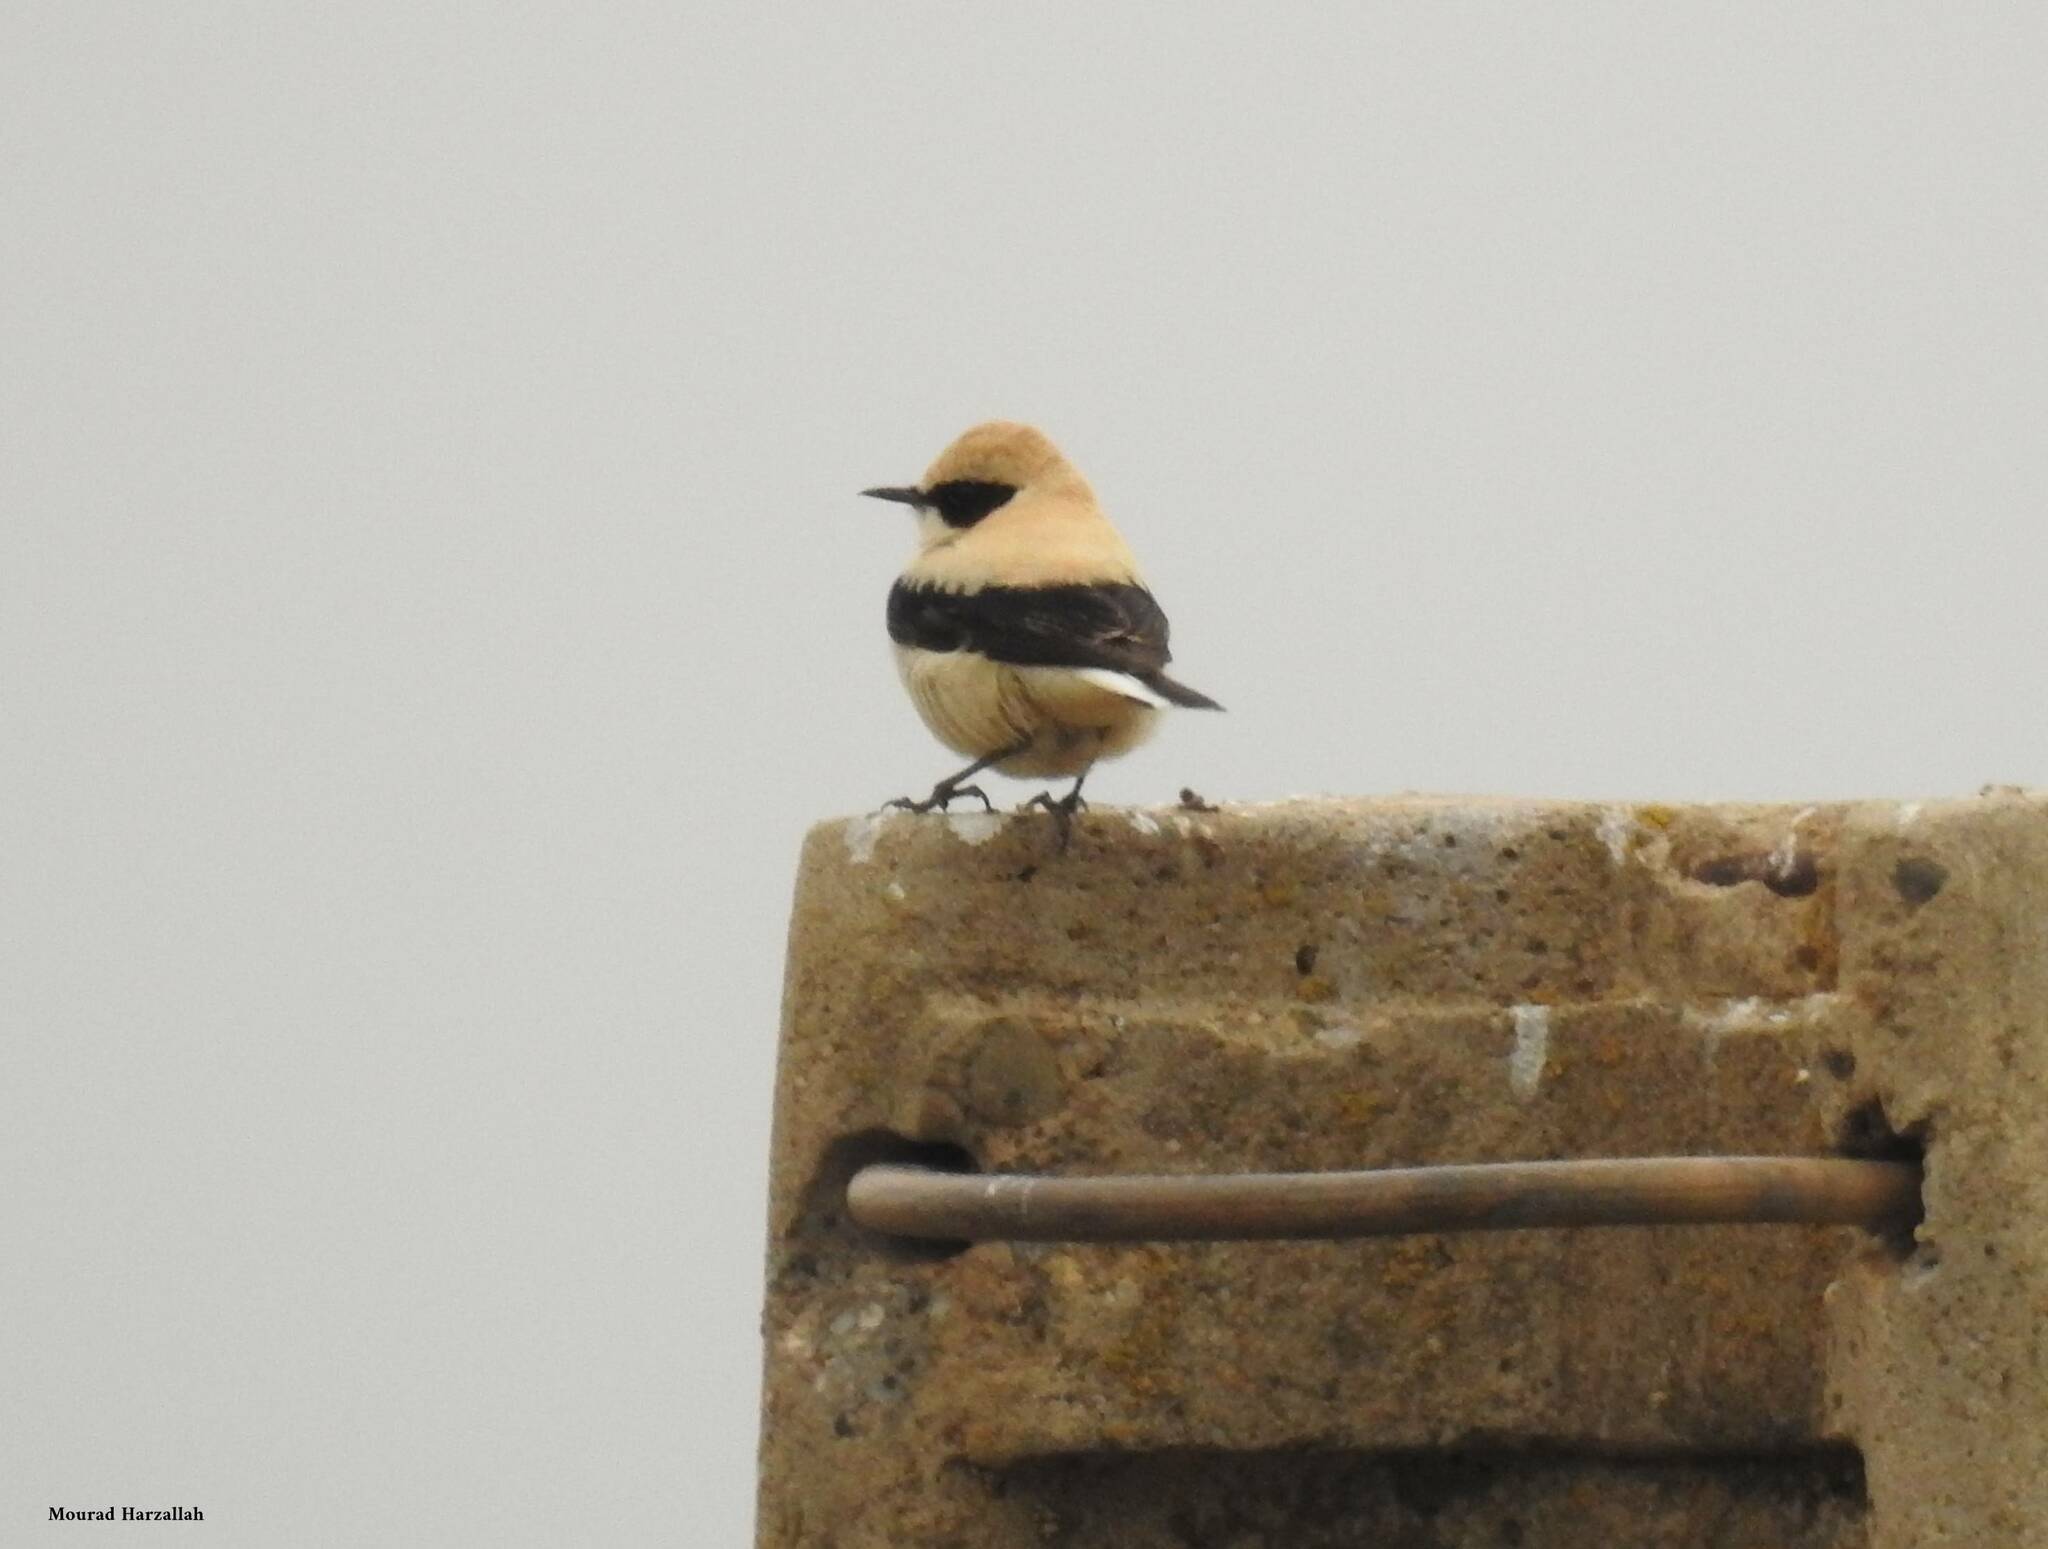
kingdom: Animalia
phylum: Chordata
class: Aves
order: Passeriformes
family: Muscicapidae
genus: Oenanthe
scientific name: Oenanthe hispanica
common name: Black-eared wheatear
